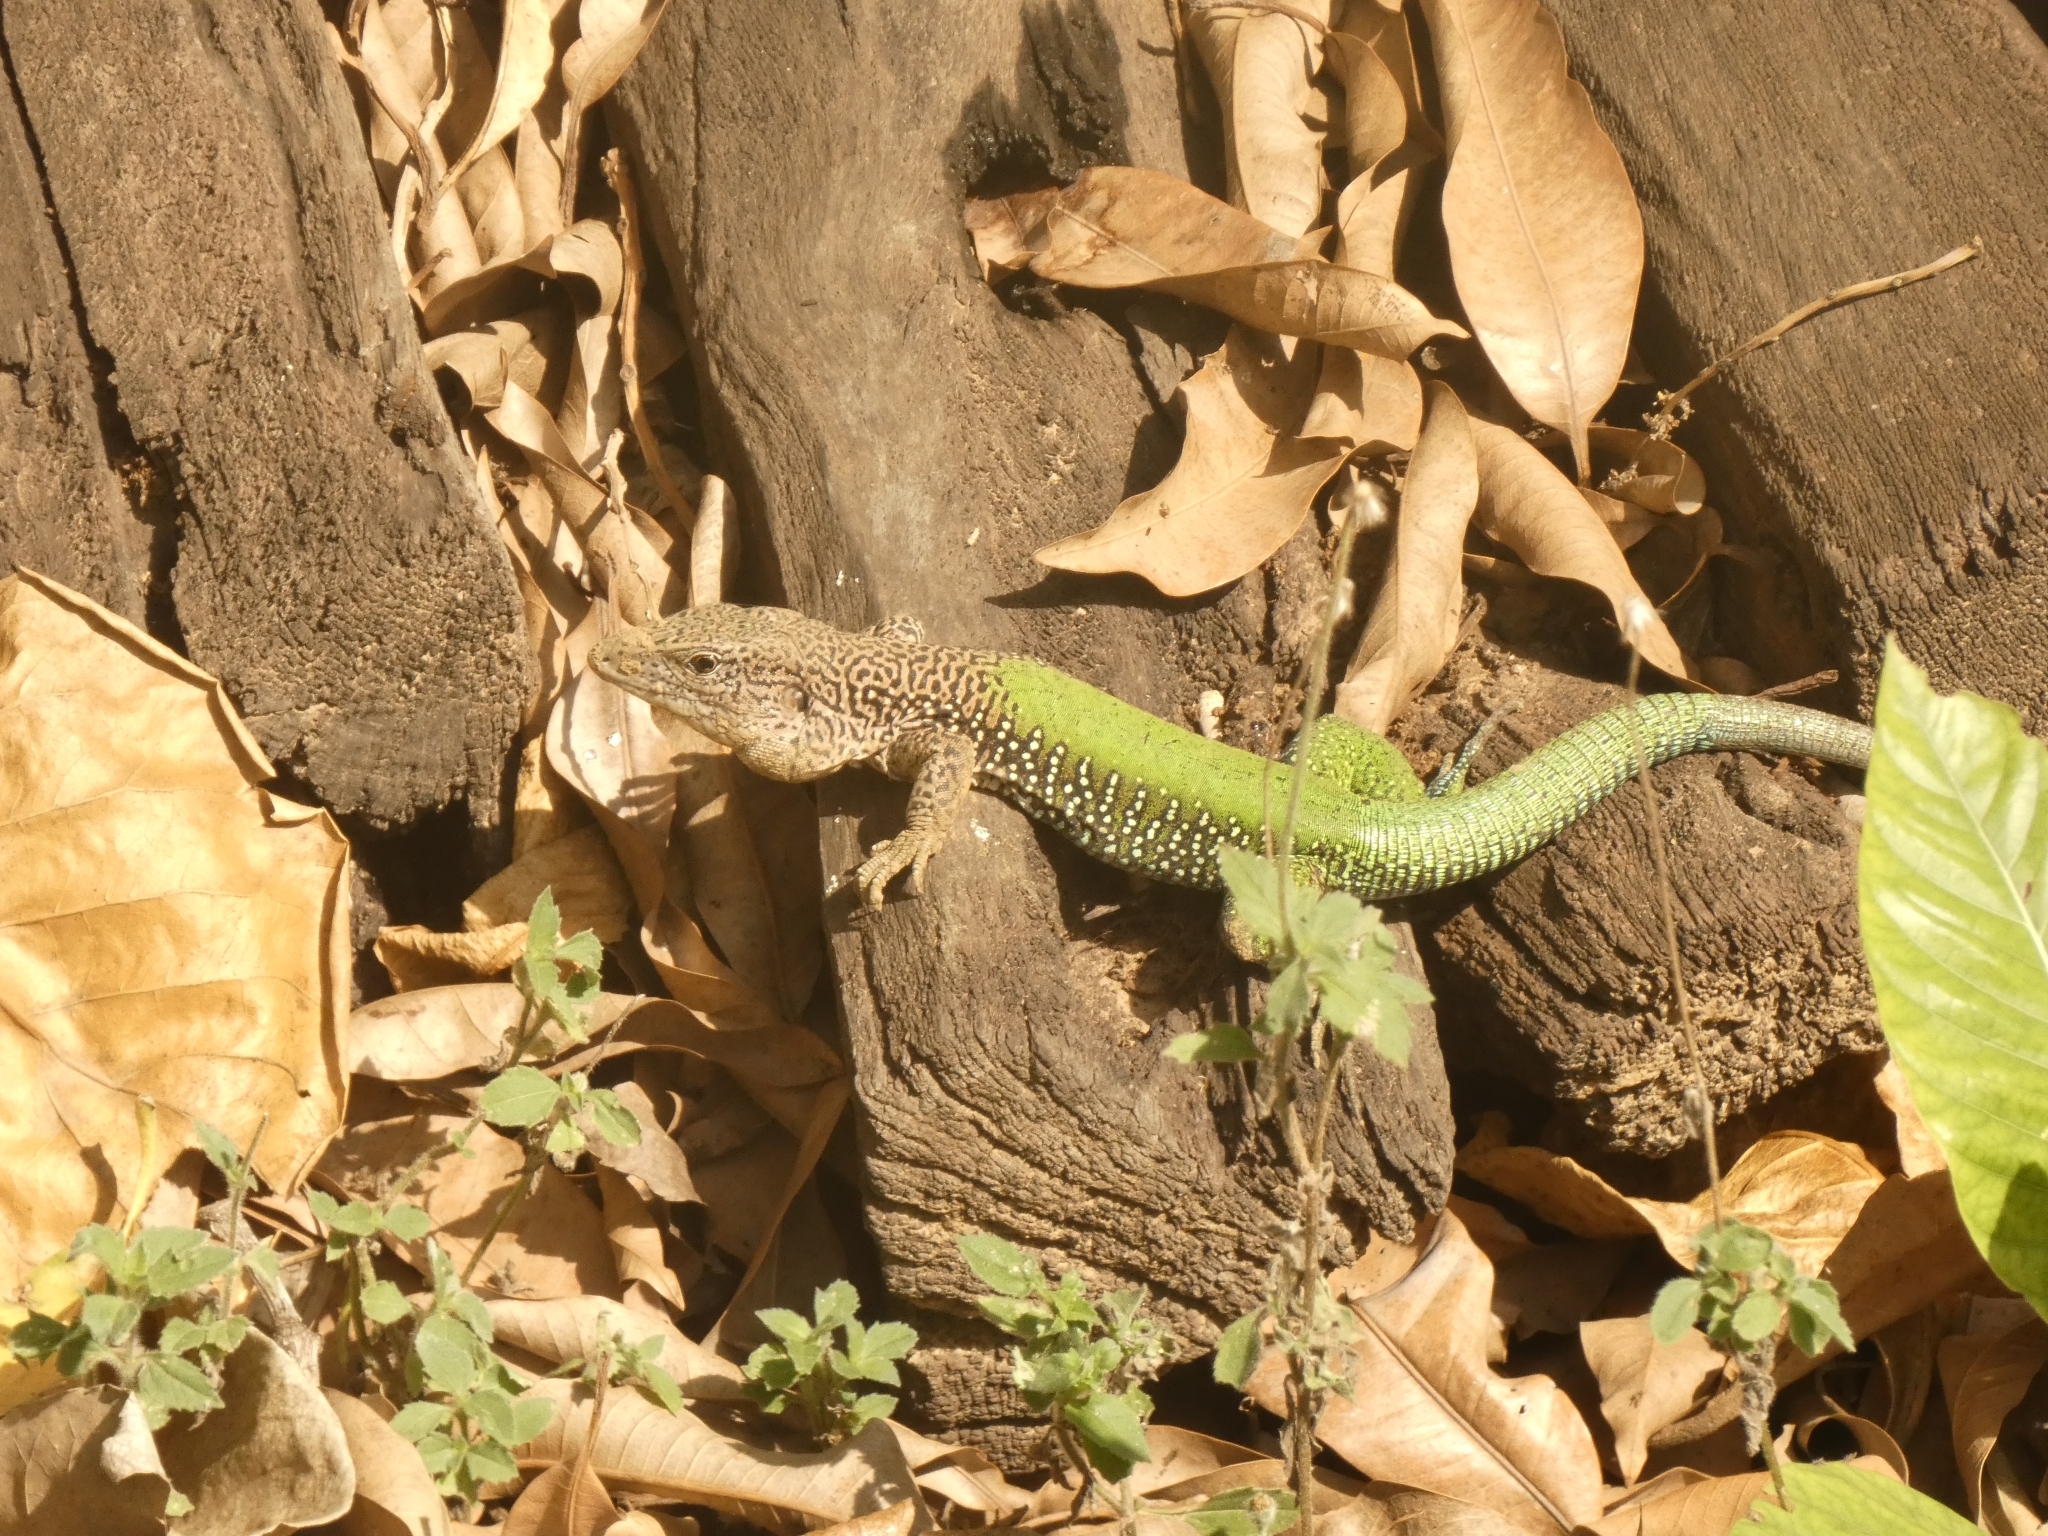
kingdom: Animalia
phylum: Chordata
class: Squamata
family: Teiidae
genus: Ameiva
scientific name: Ameiva ameiva
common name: Giant ameiva
